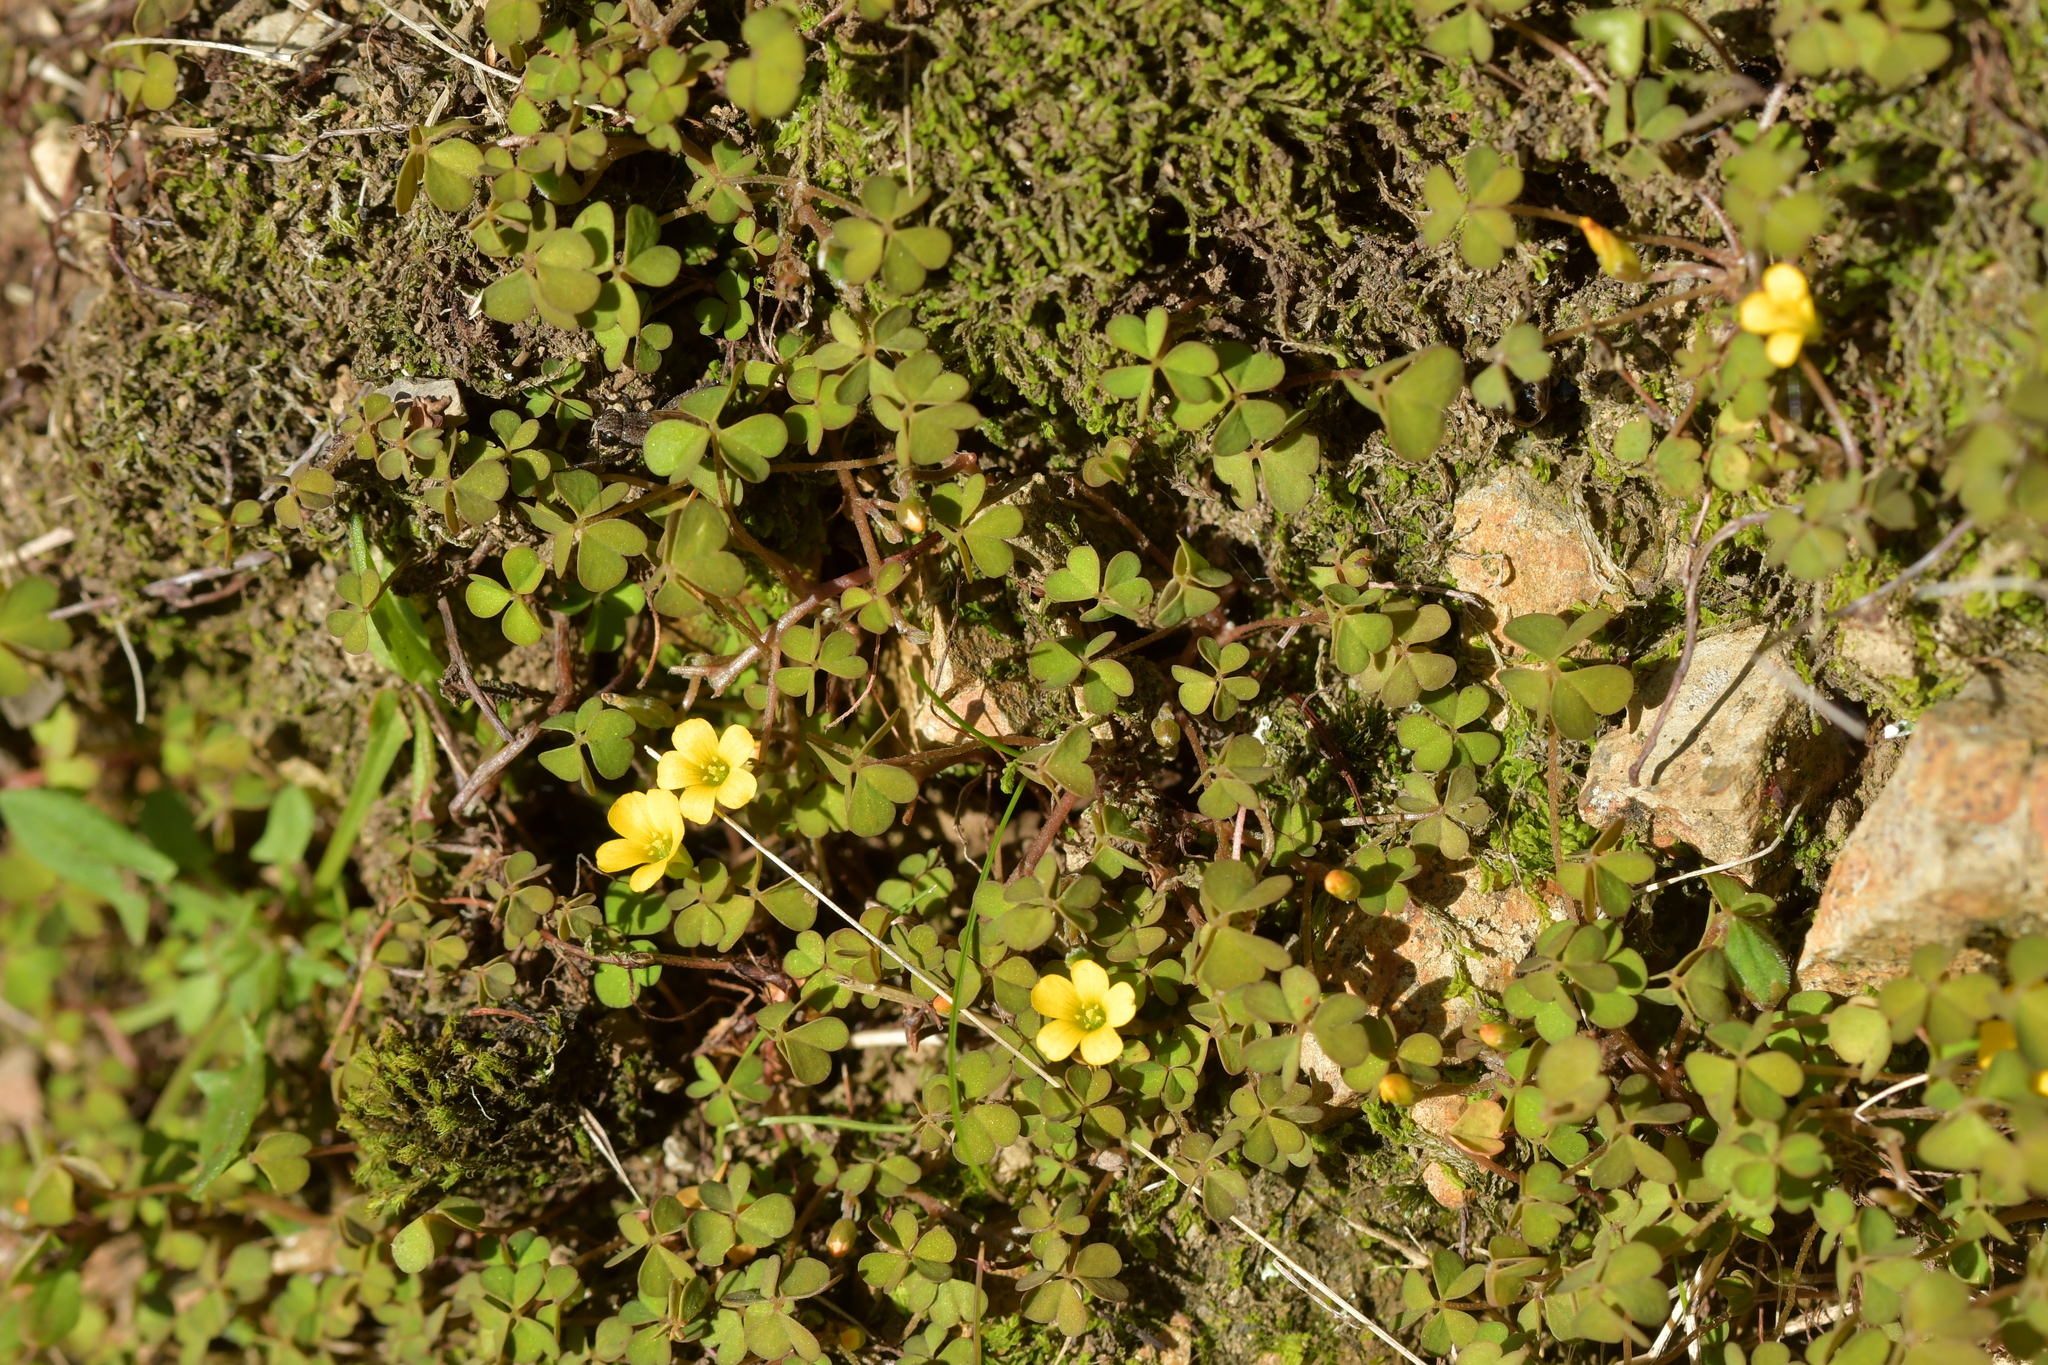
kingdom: Plantae
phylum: Tracheophyta
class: Magnoliopsida
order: Oxalidales
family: Oxalidaceae
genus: Oxalis
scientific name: Oxalis exilis
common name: Least yellow-sorrel
